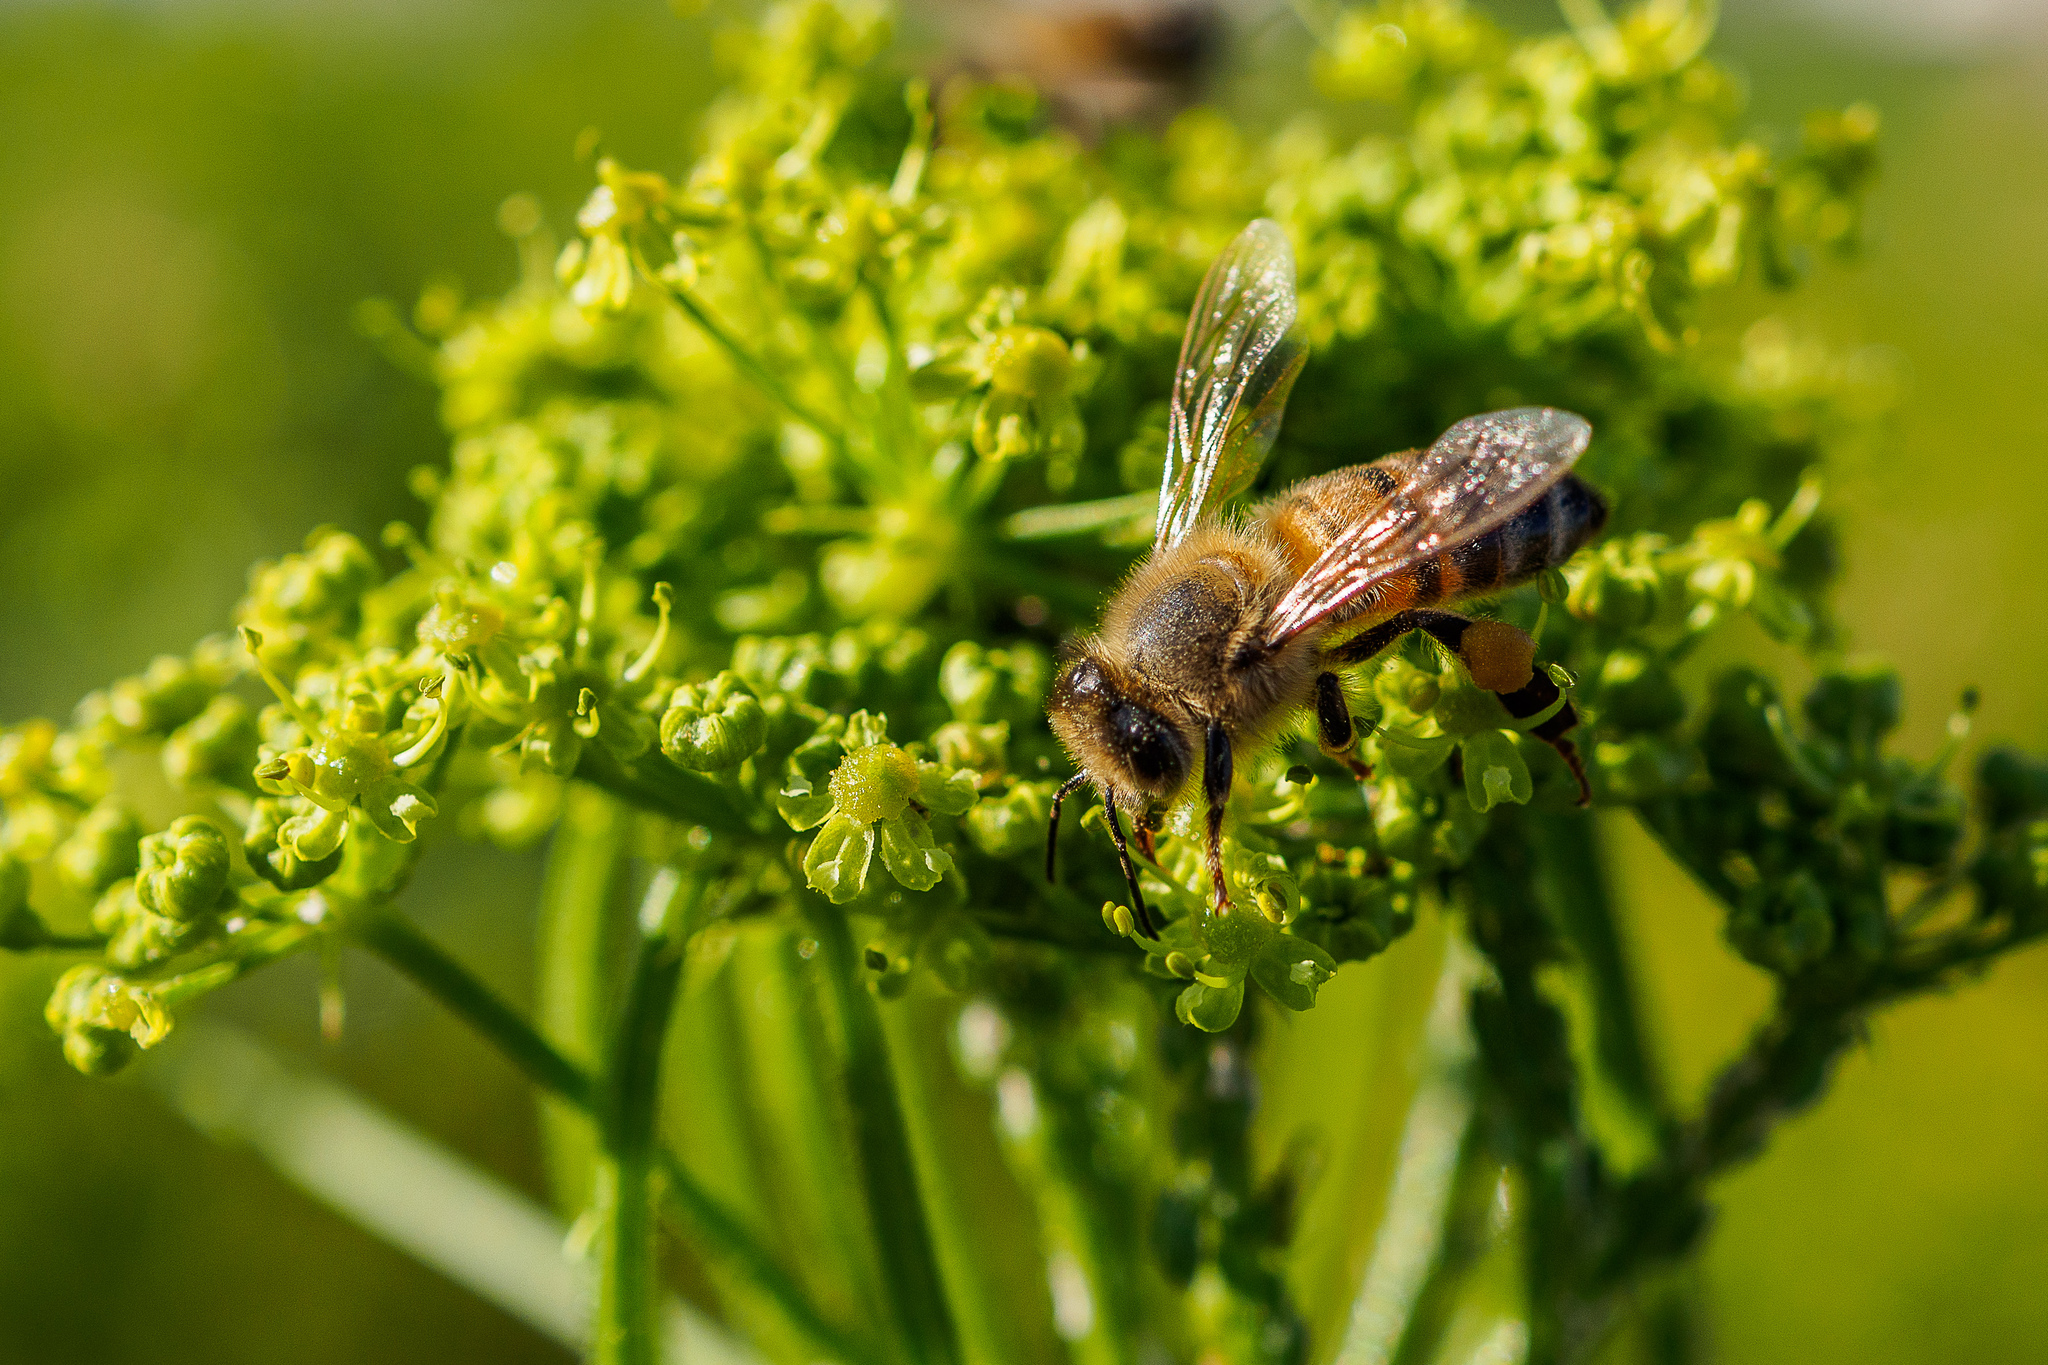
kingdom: Animalia
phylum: Arthropoda
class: Insecta
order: Hymenoptera
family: Apidae
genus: Apis
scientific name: Apis mellifera
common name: Honey bee
